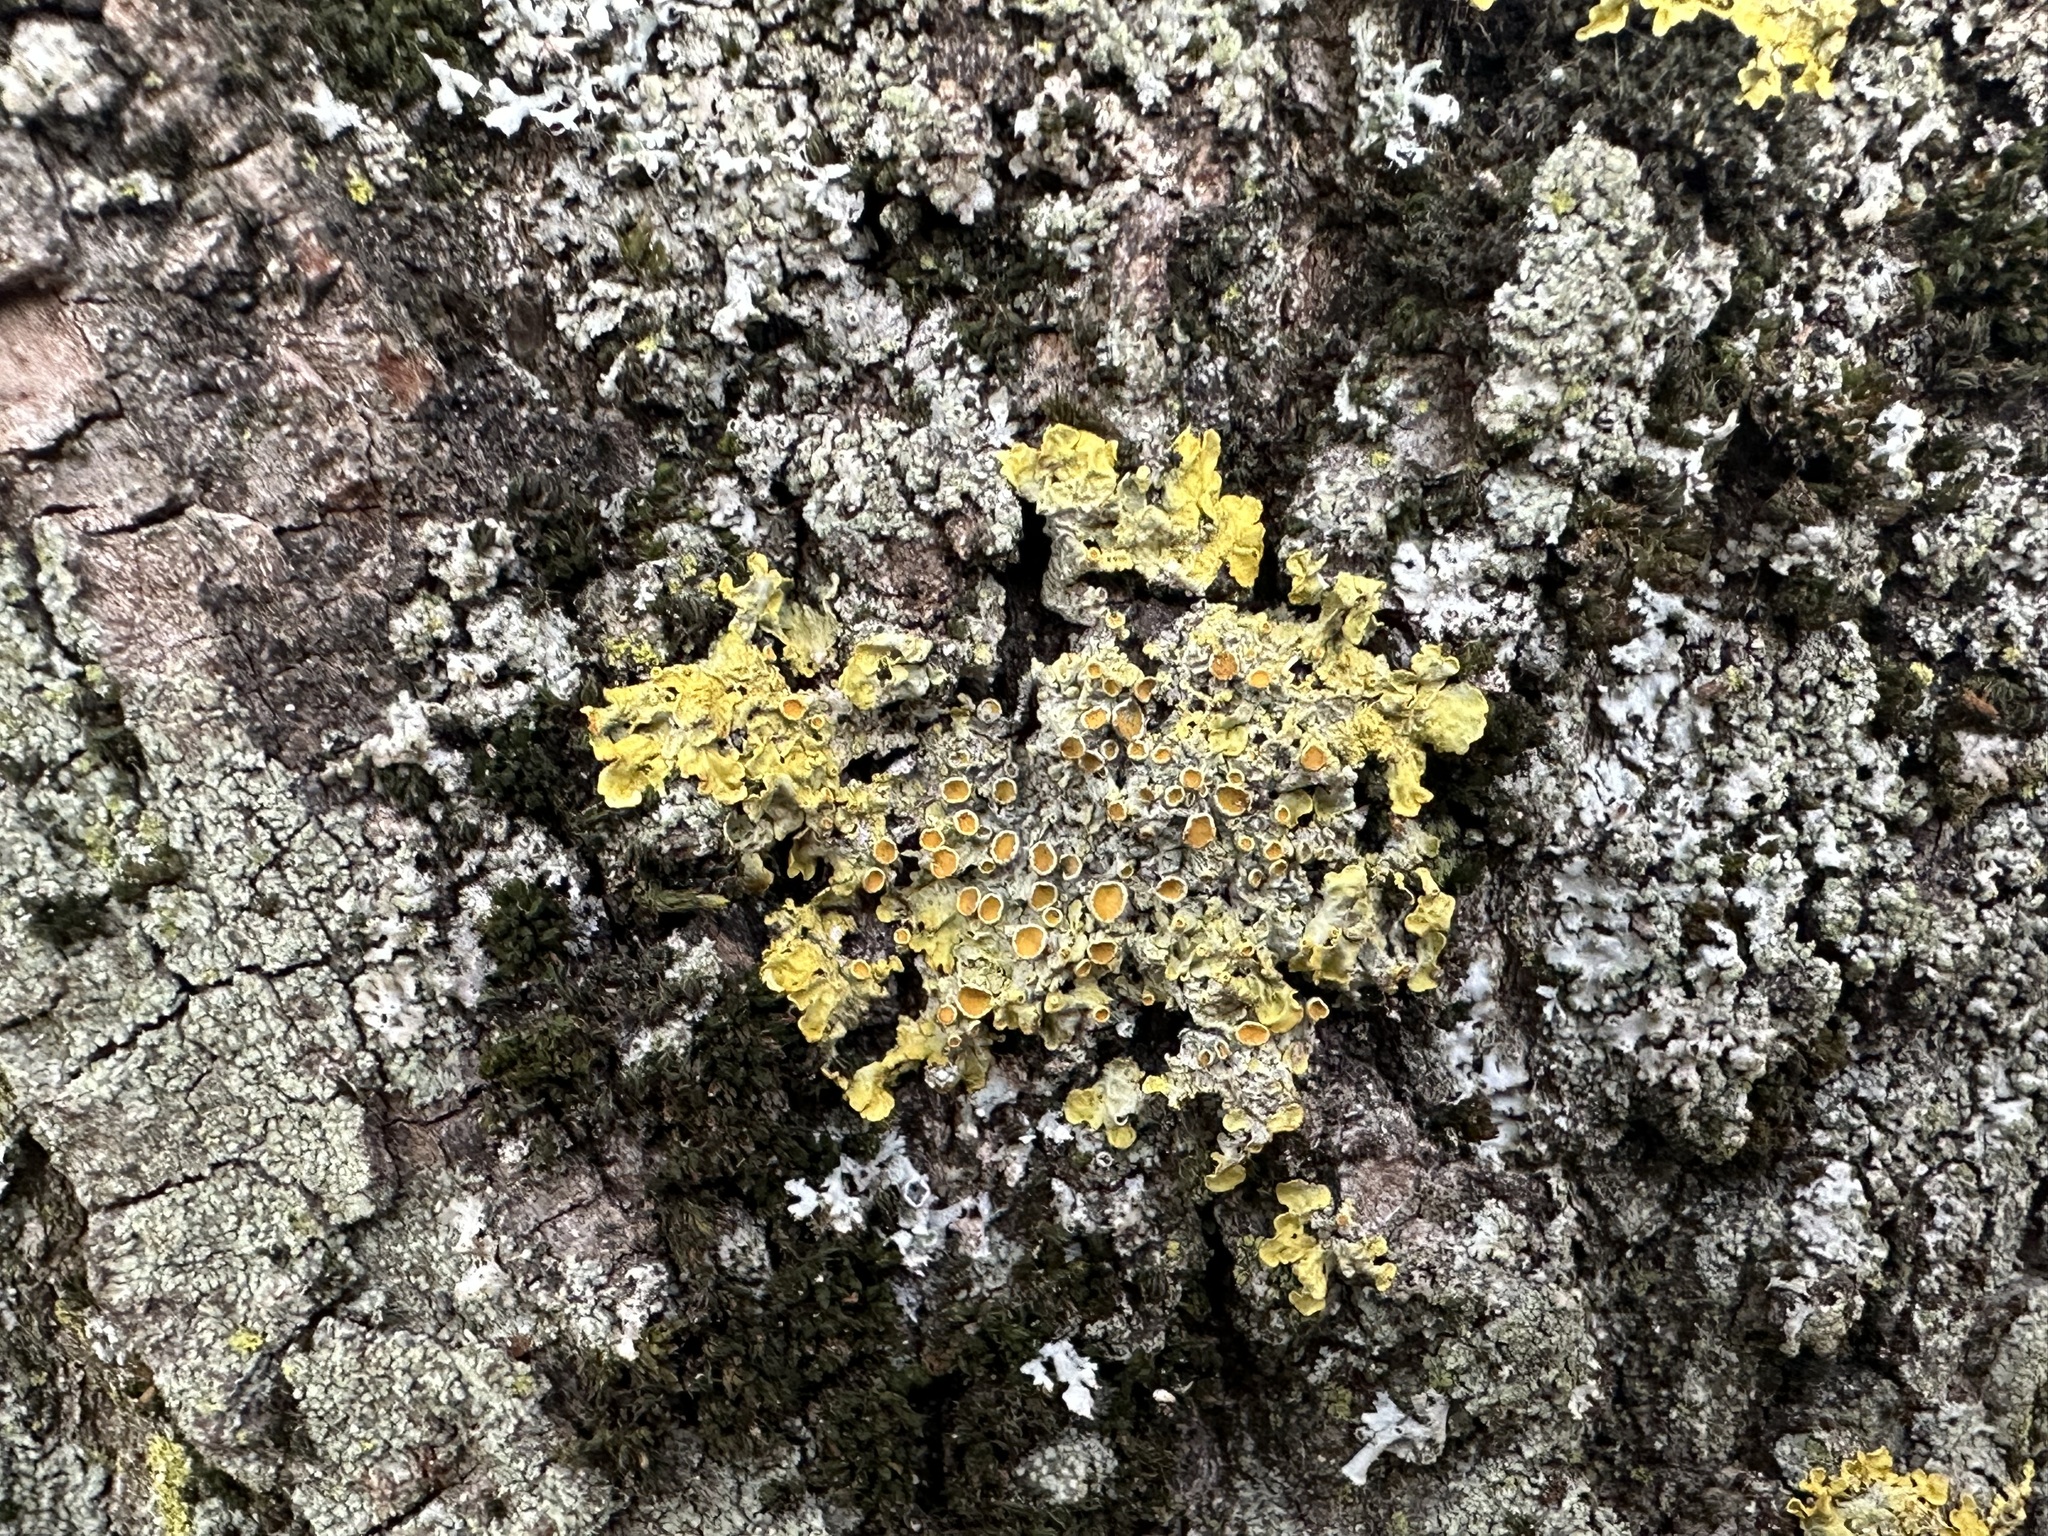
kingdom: Fungi
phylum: Ascomycota
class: Lecanoromycetes
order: Teloschistales
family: Teloschistaceae
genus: Xanthoria
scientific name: Xanthoria parietina
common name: Common orange lichen
